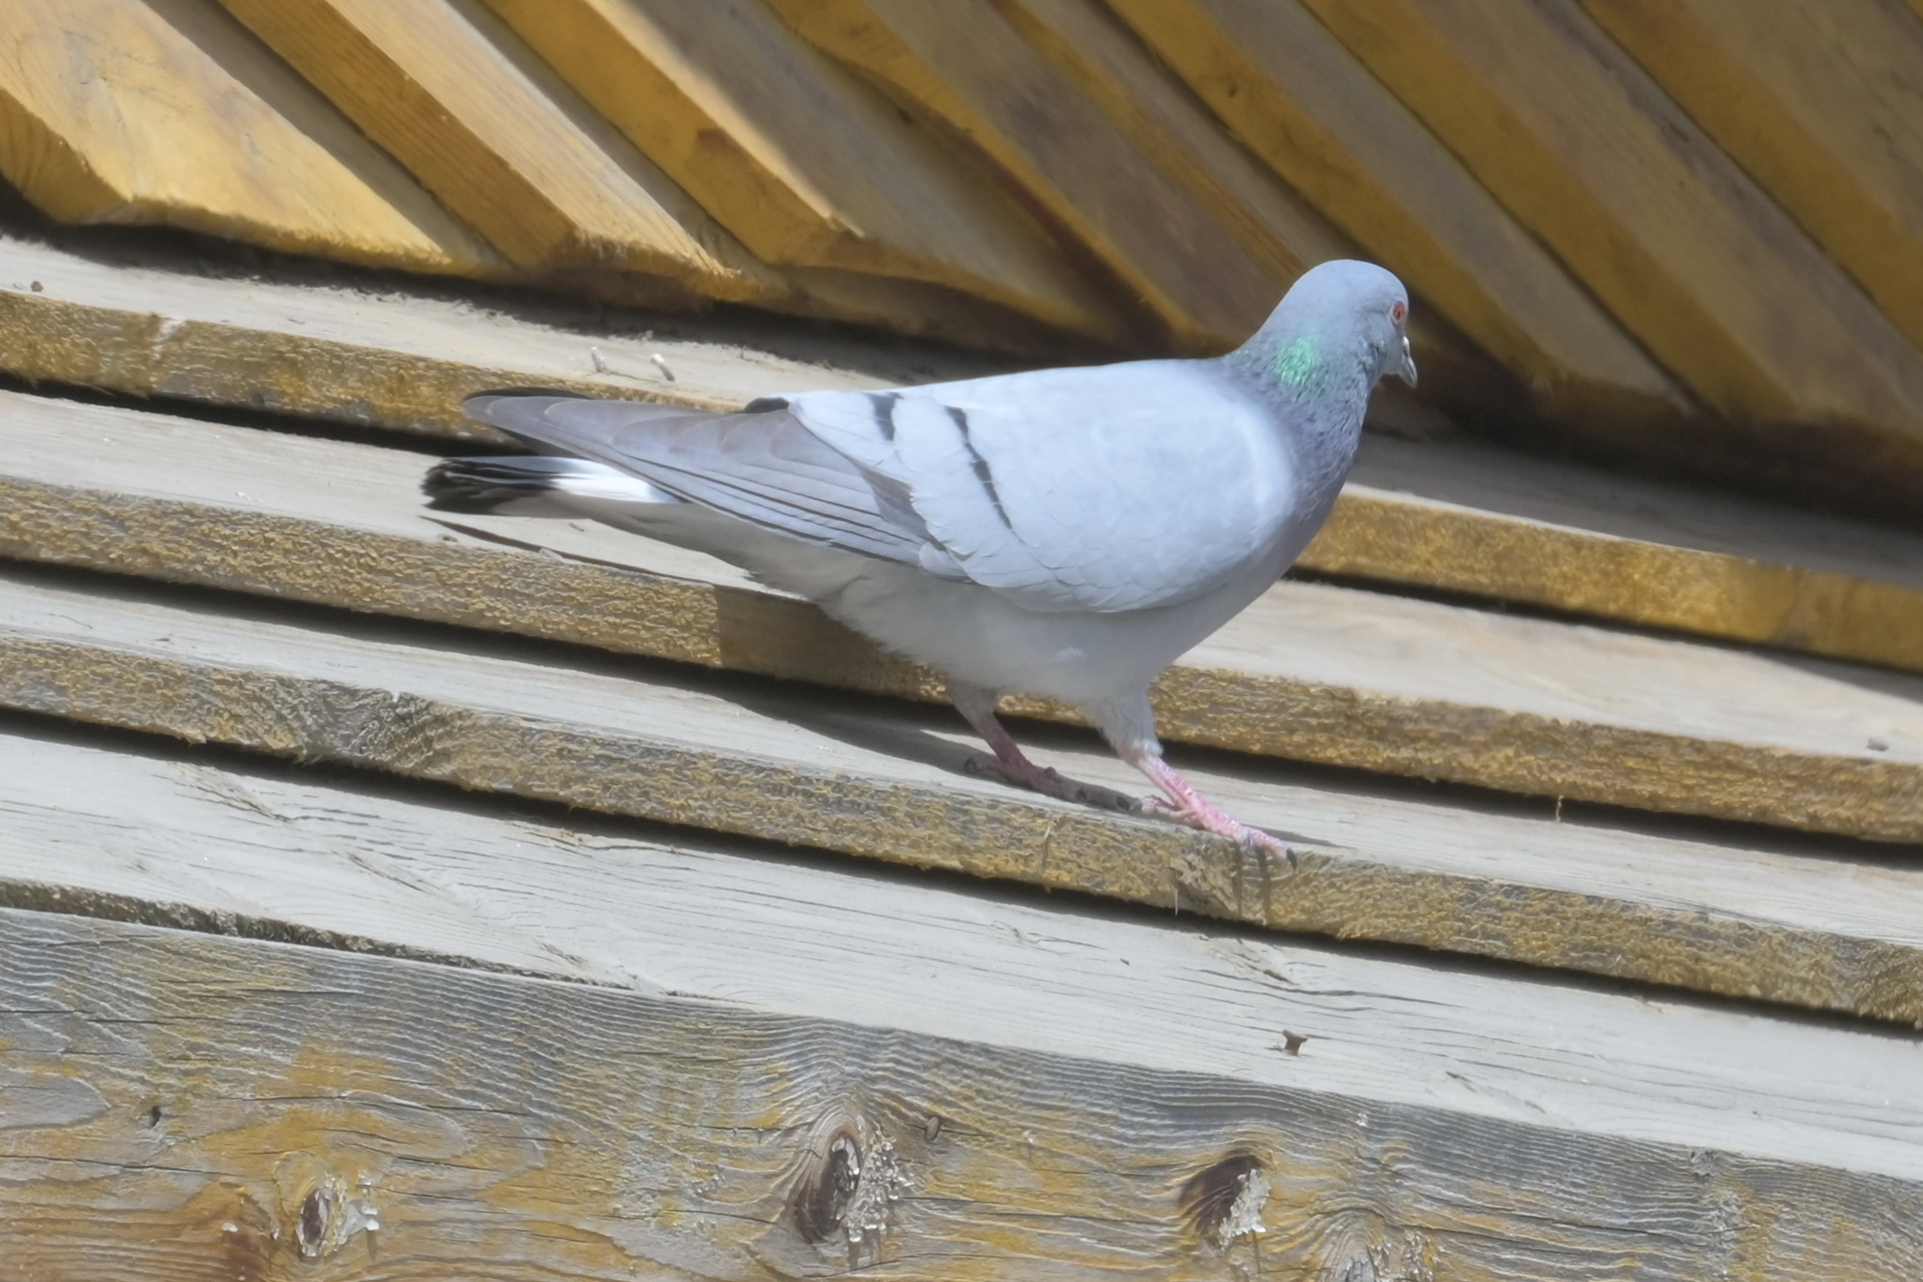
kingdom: Animalia
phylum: Chordata
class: Aves
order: Columbiformes
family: Columbidae
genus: Columba
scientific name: Columba rupestris
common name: Hill pigeon
